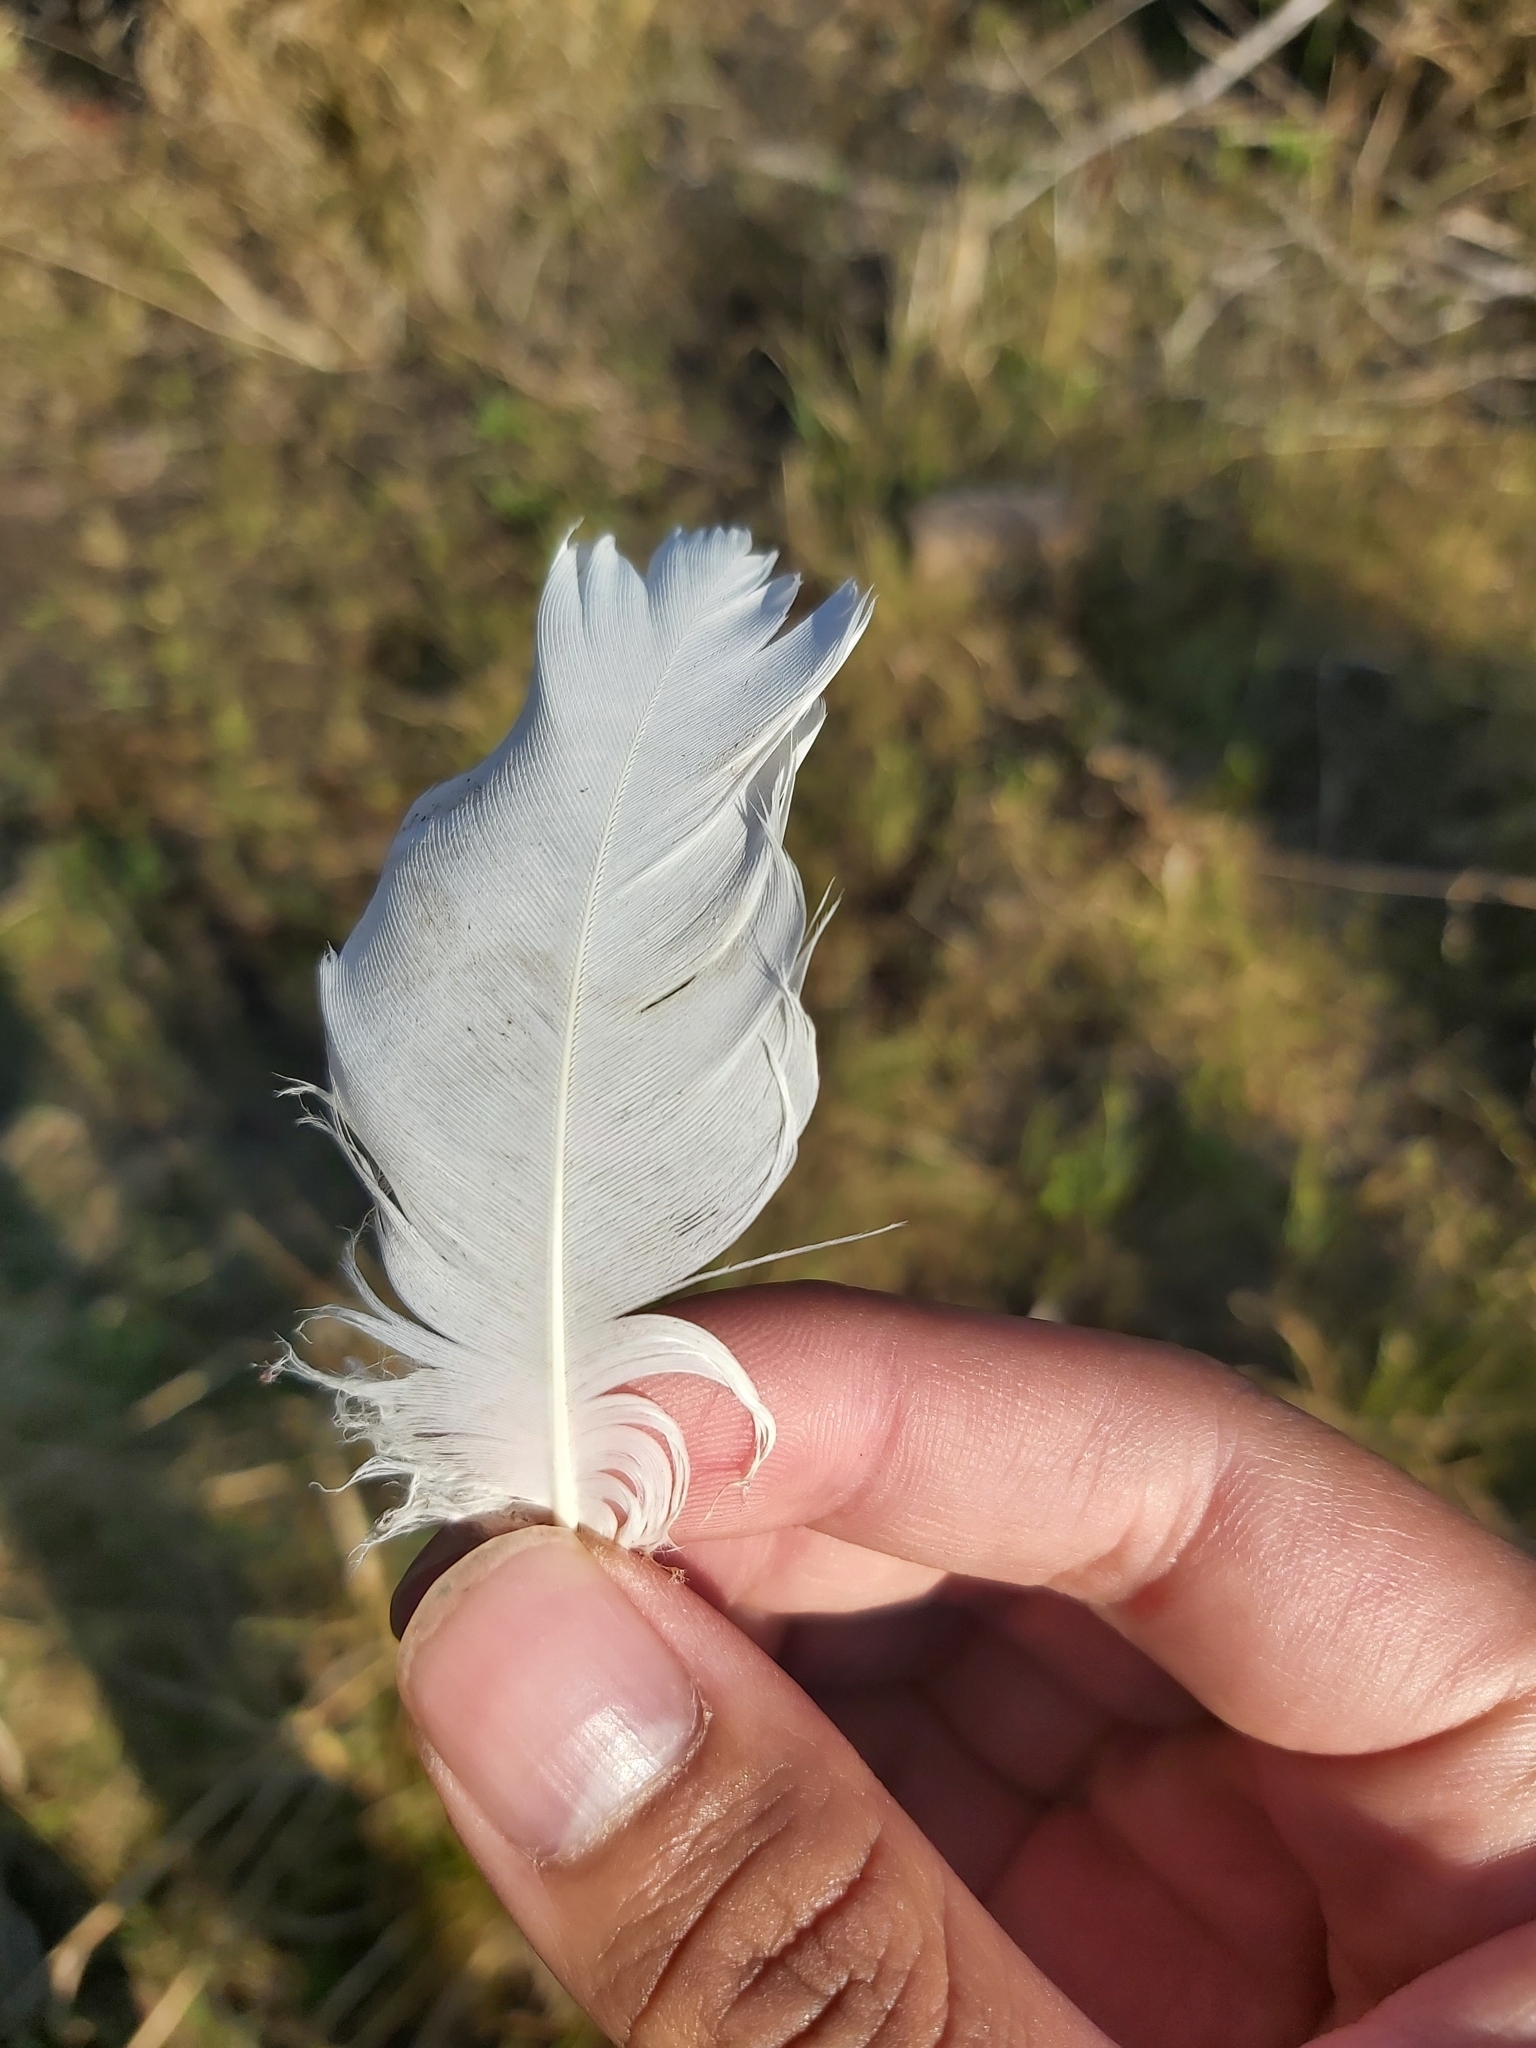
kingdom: Animalia
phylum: Chordata
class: Aves
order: Psittaciformes
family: Psittacidae
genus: Cacatua
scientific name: Cacatua galerita
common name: Sulphur-crested cockatoo
